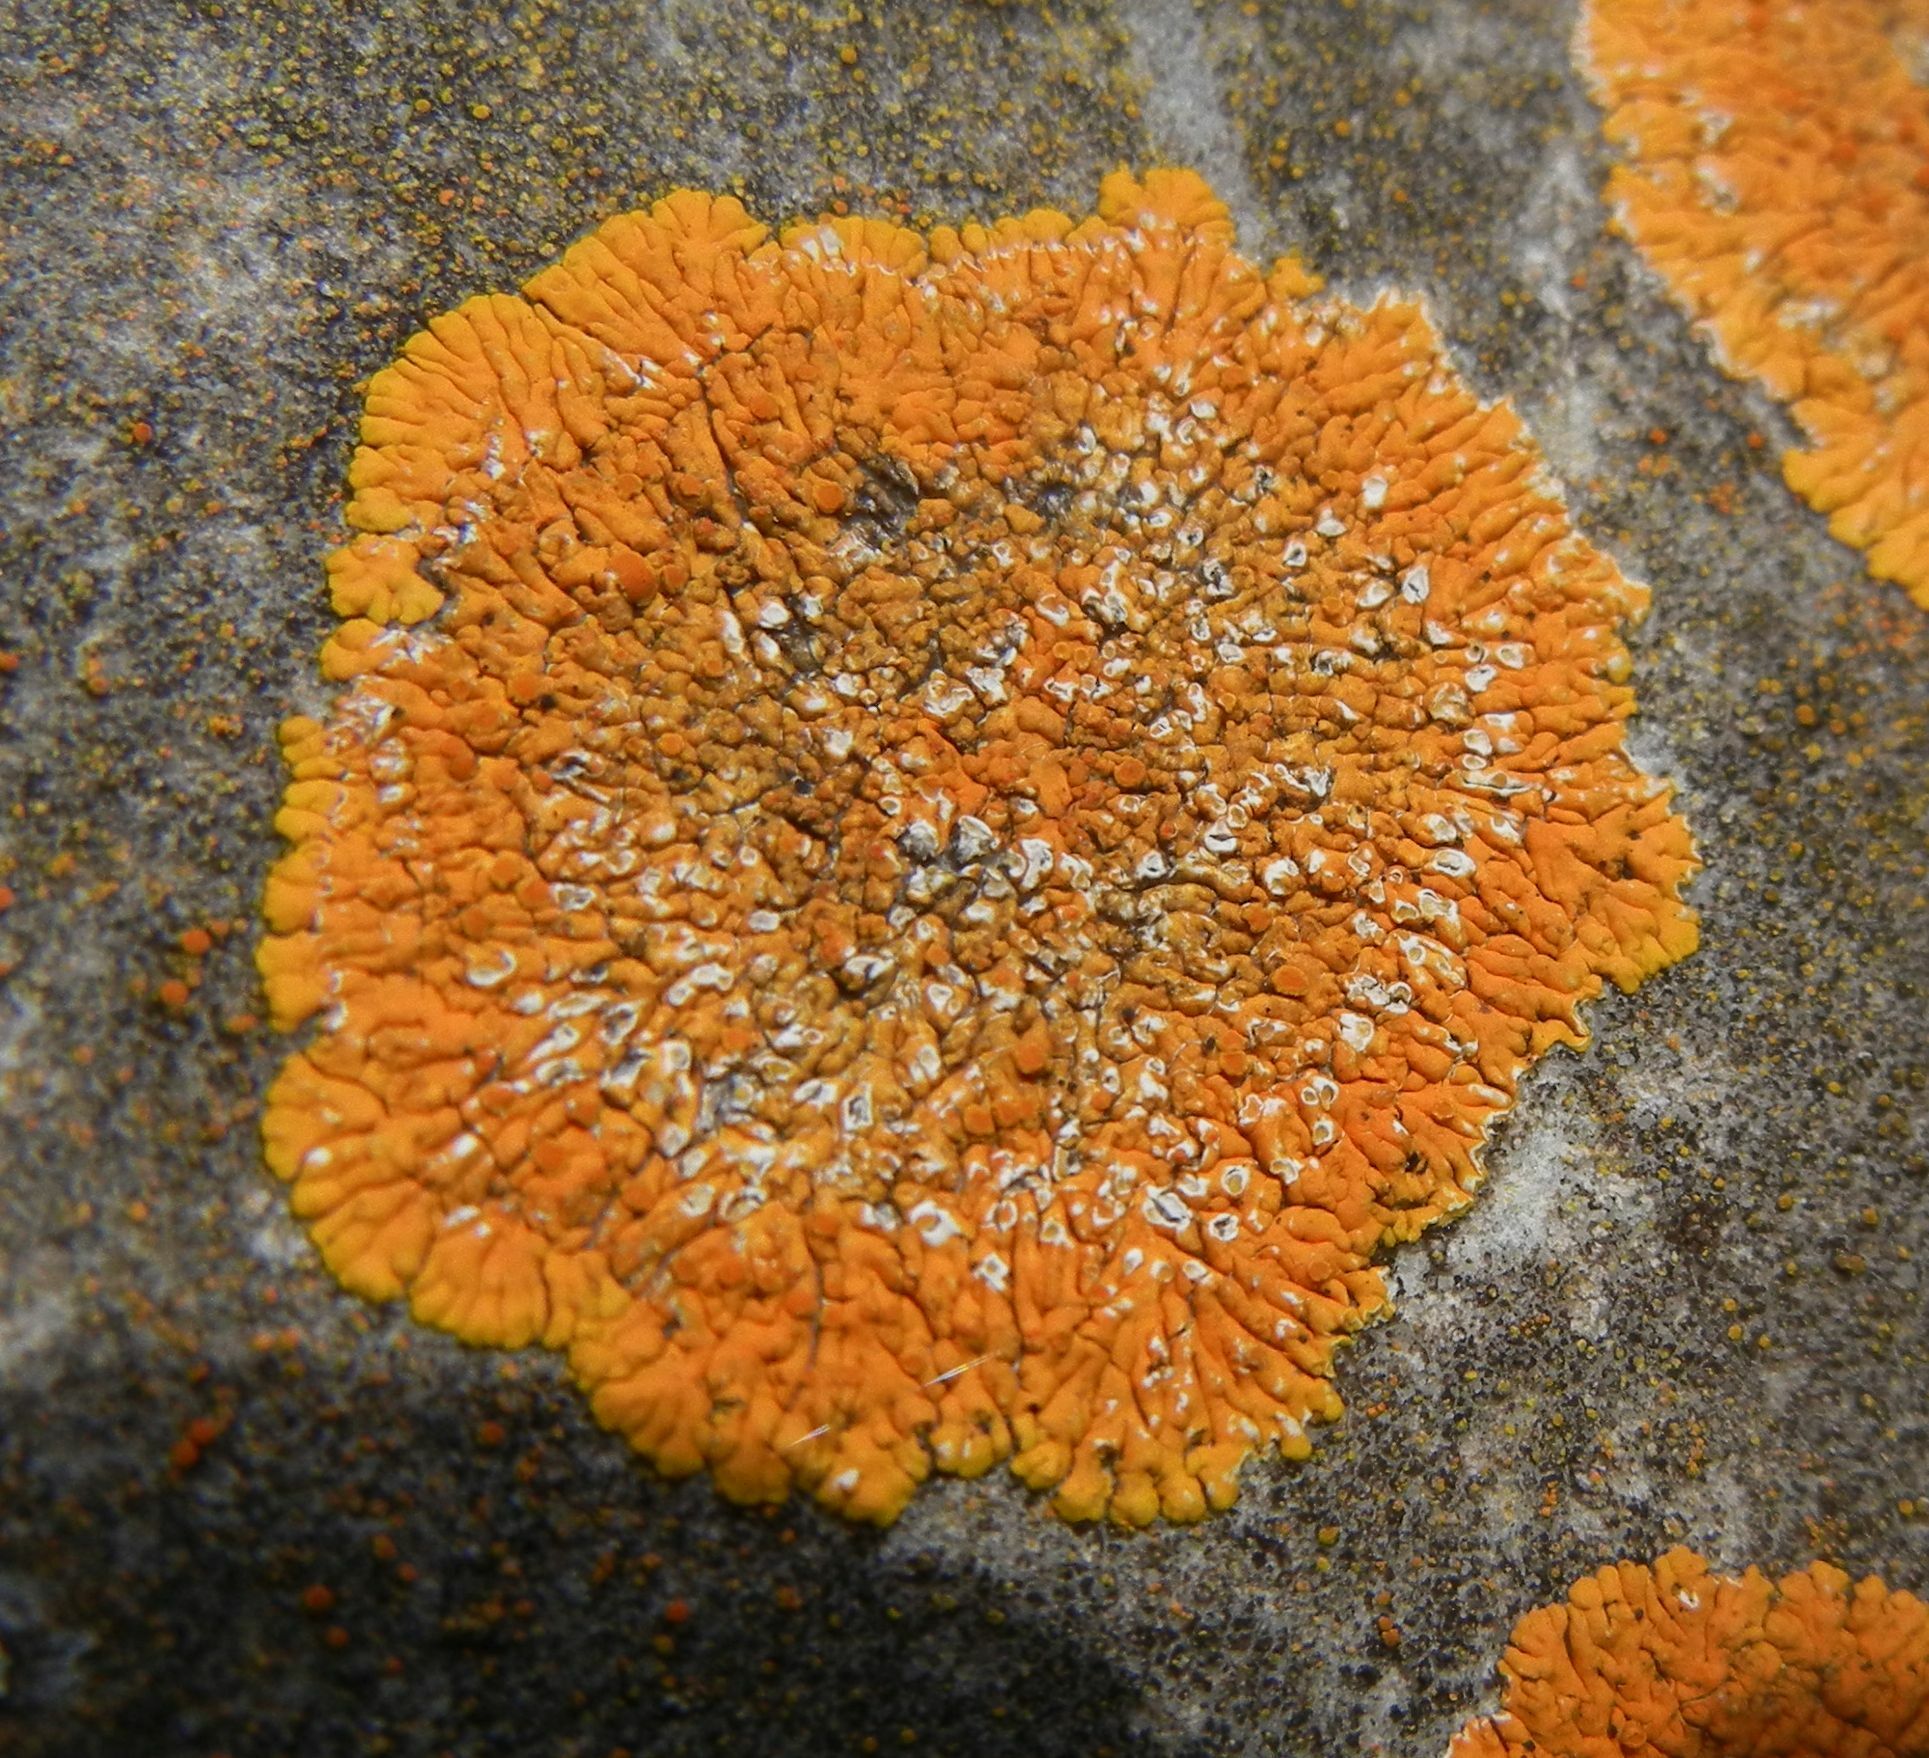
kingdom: Fungi
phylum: Ascomycota
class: Lecanoromycetes
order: Teloschistales
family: Teloschistaceae
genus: Variospora
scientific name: Variospora flavescens
